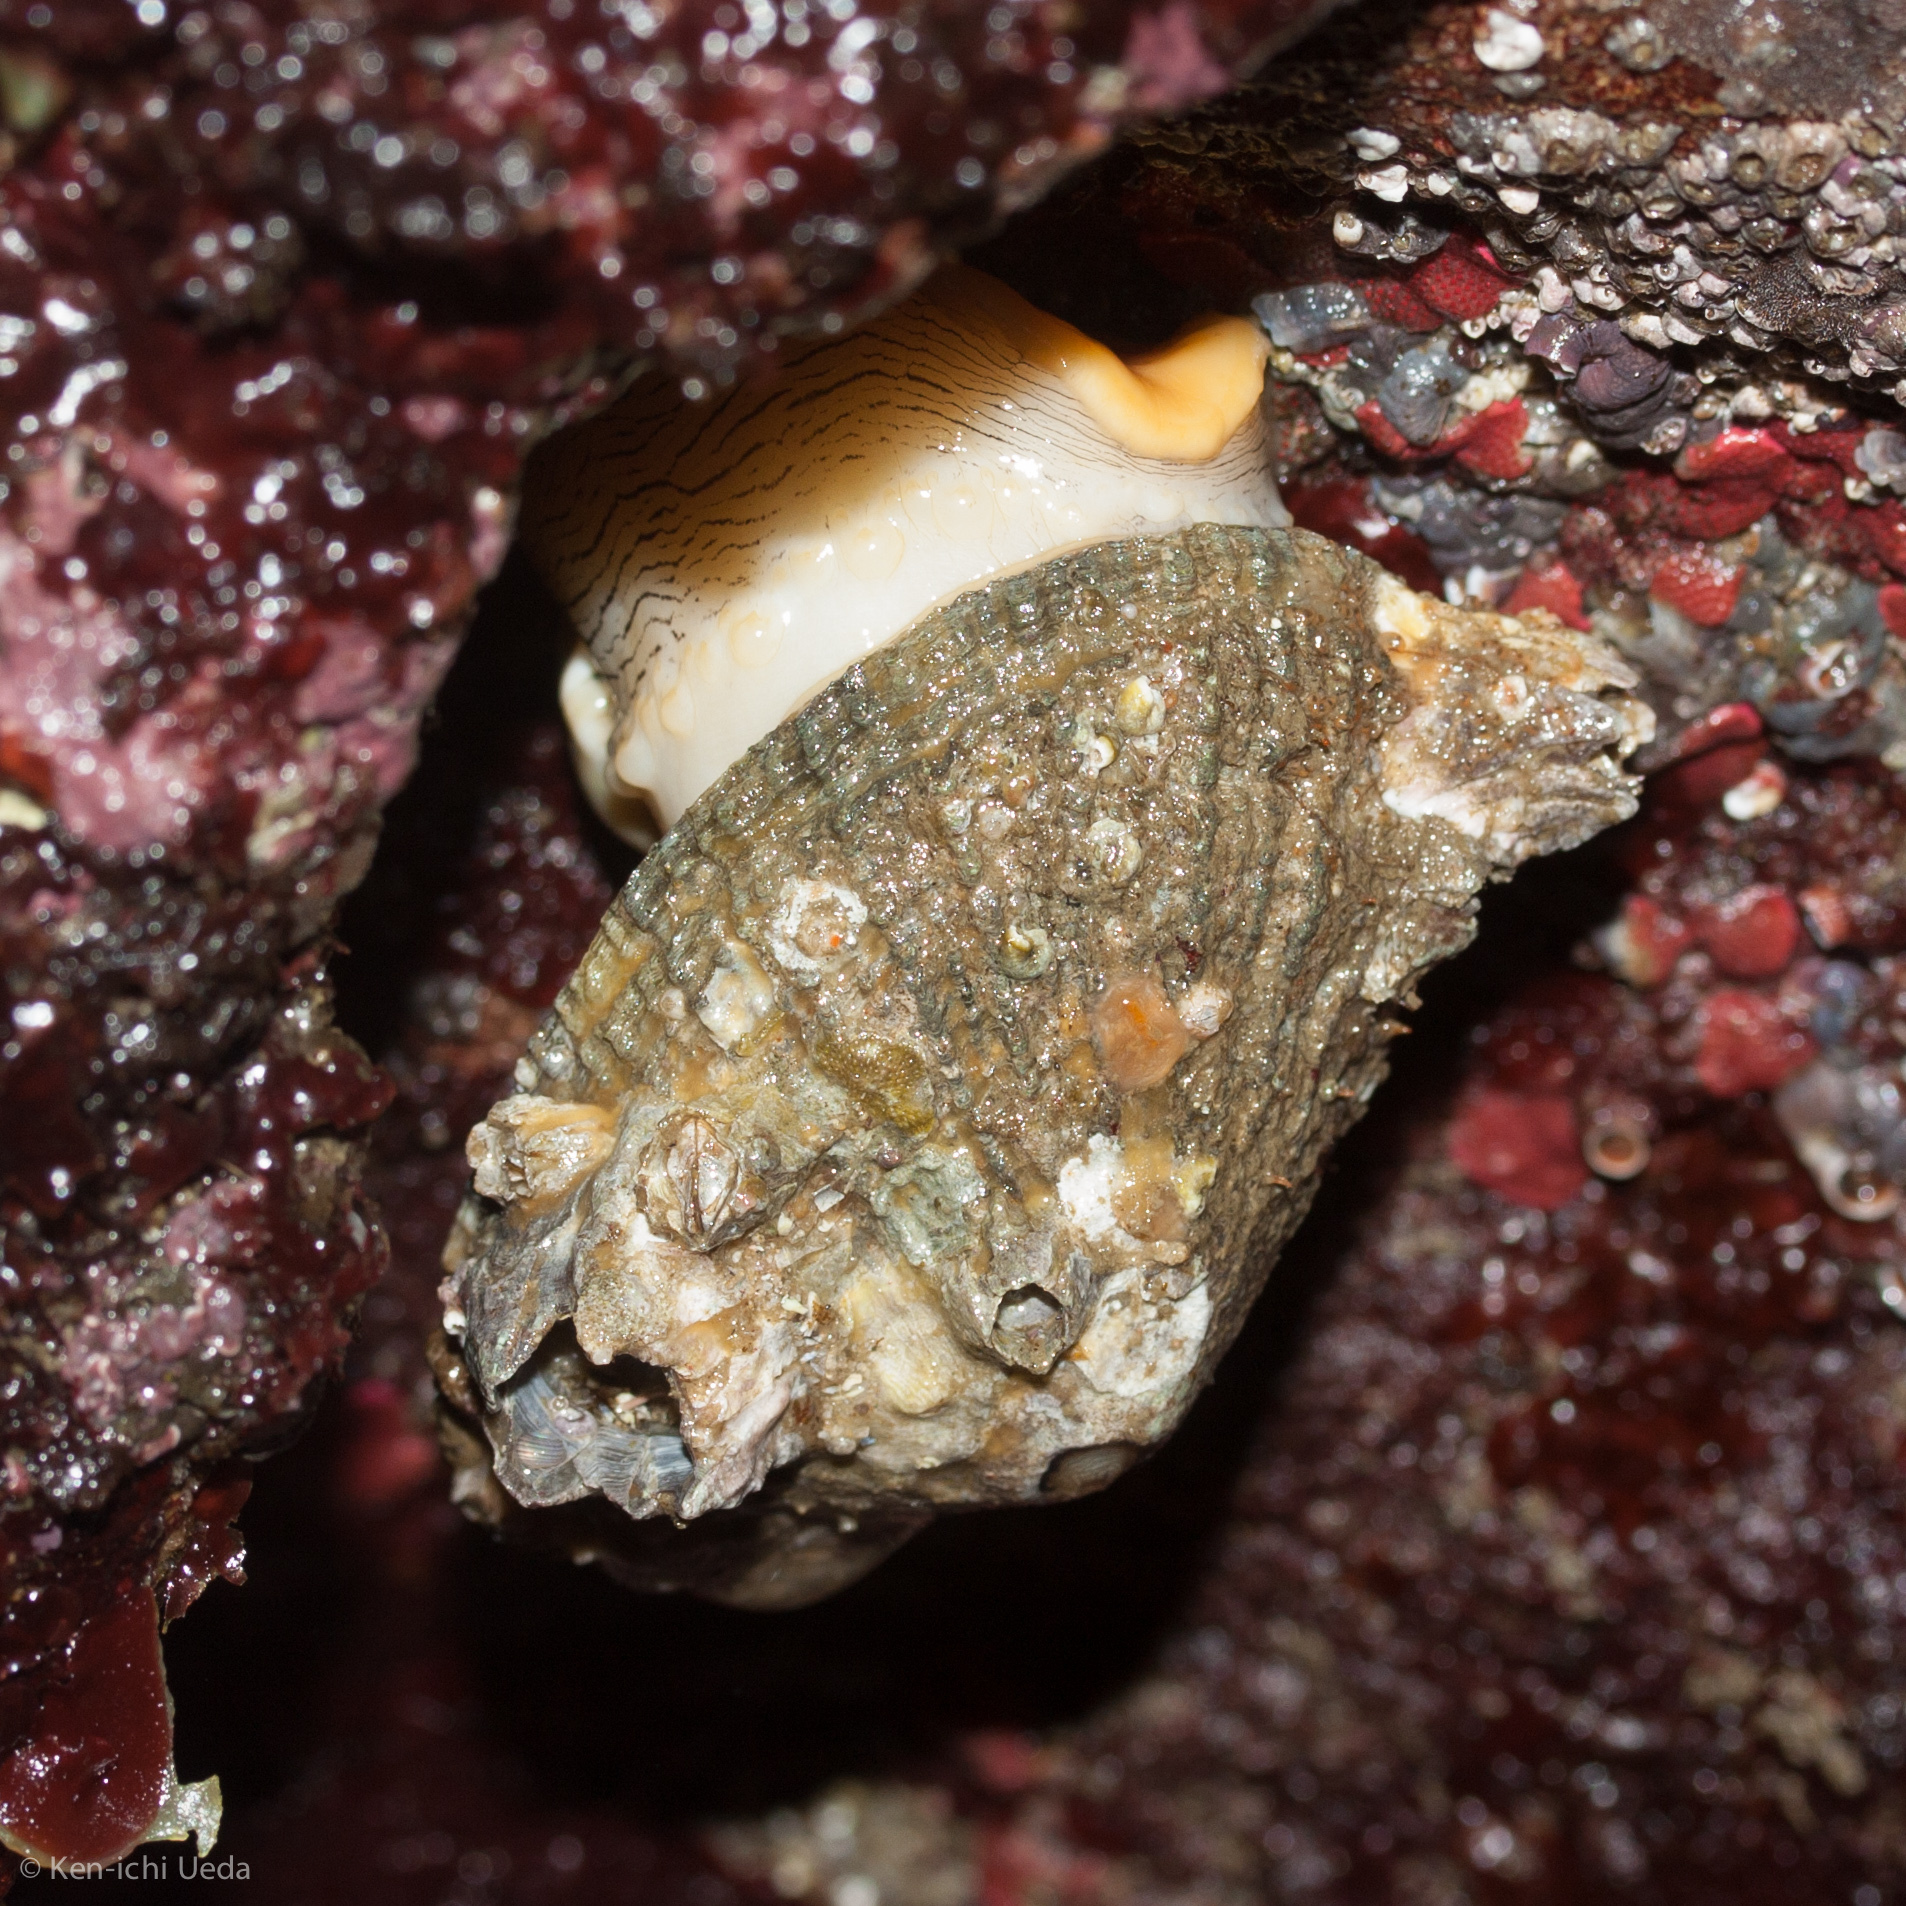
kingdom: Animalia
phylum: Mollusca
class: Gastropoda
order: Lepetellida
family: Fissurellidae
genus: Diodora
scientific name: Diodora aspera
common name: Rough keyhole limpet
